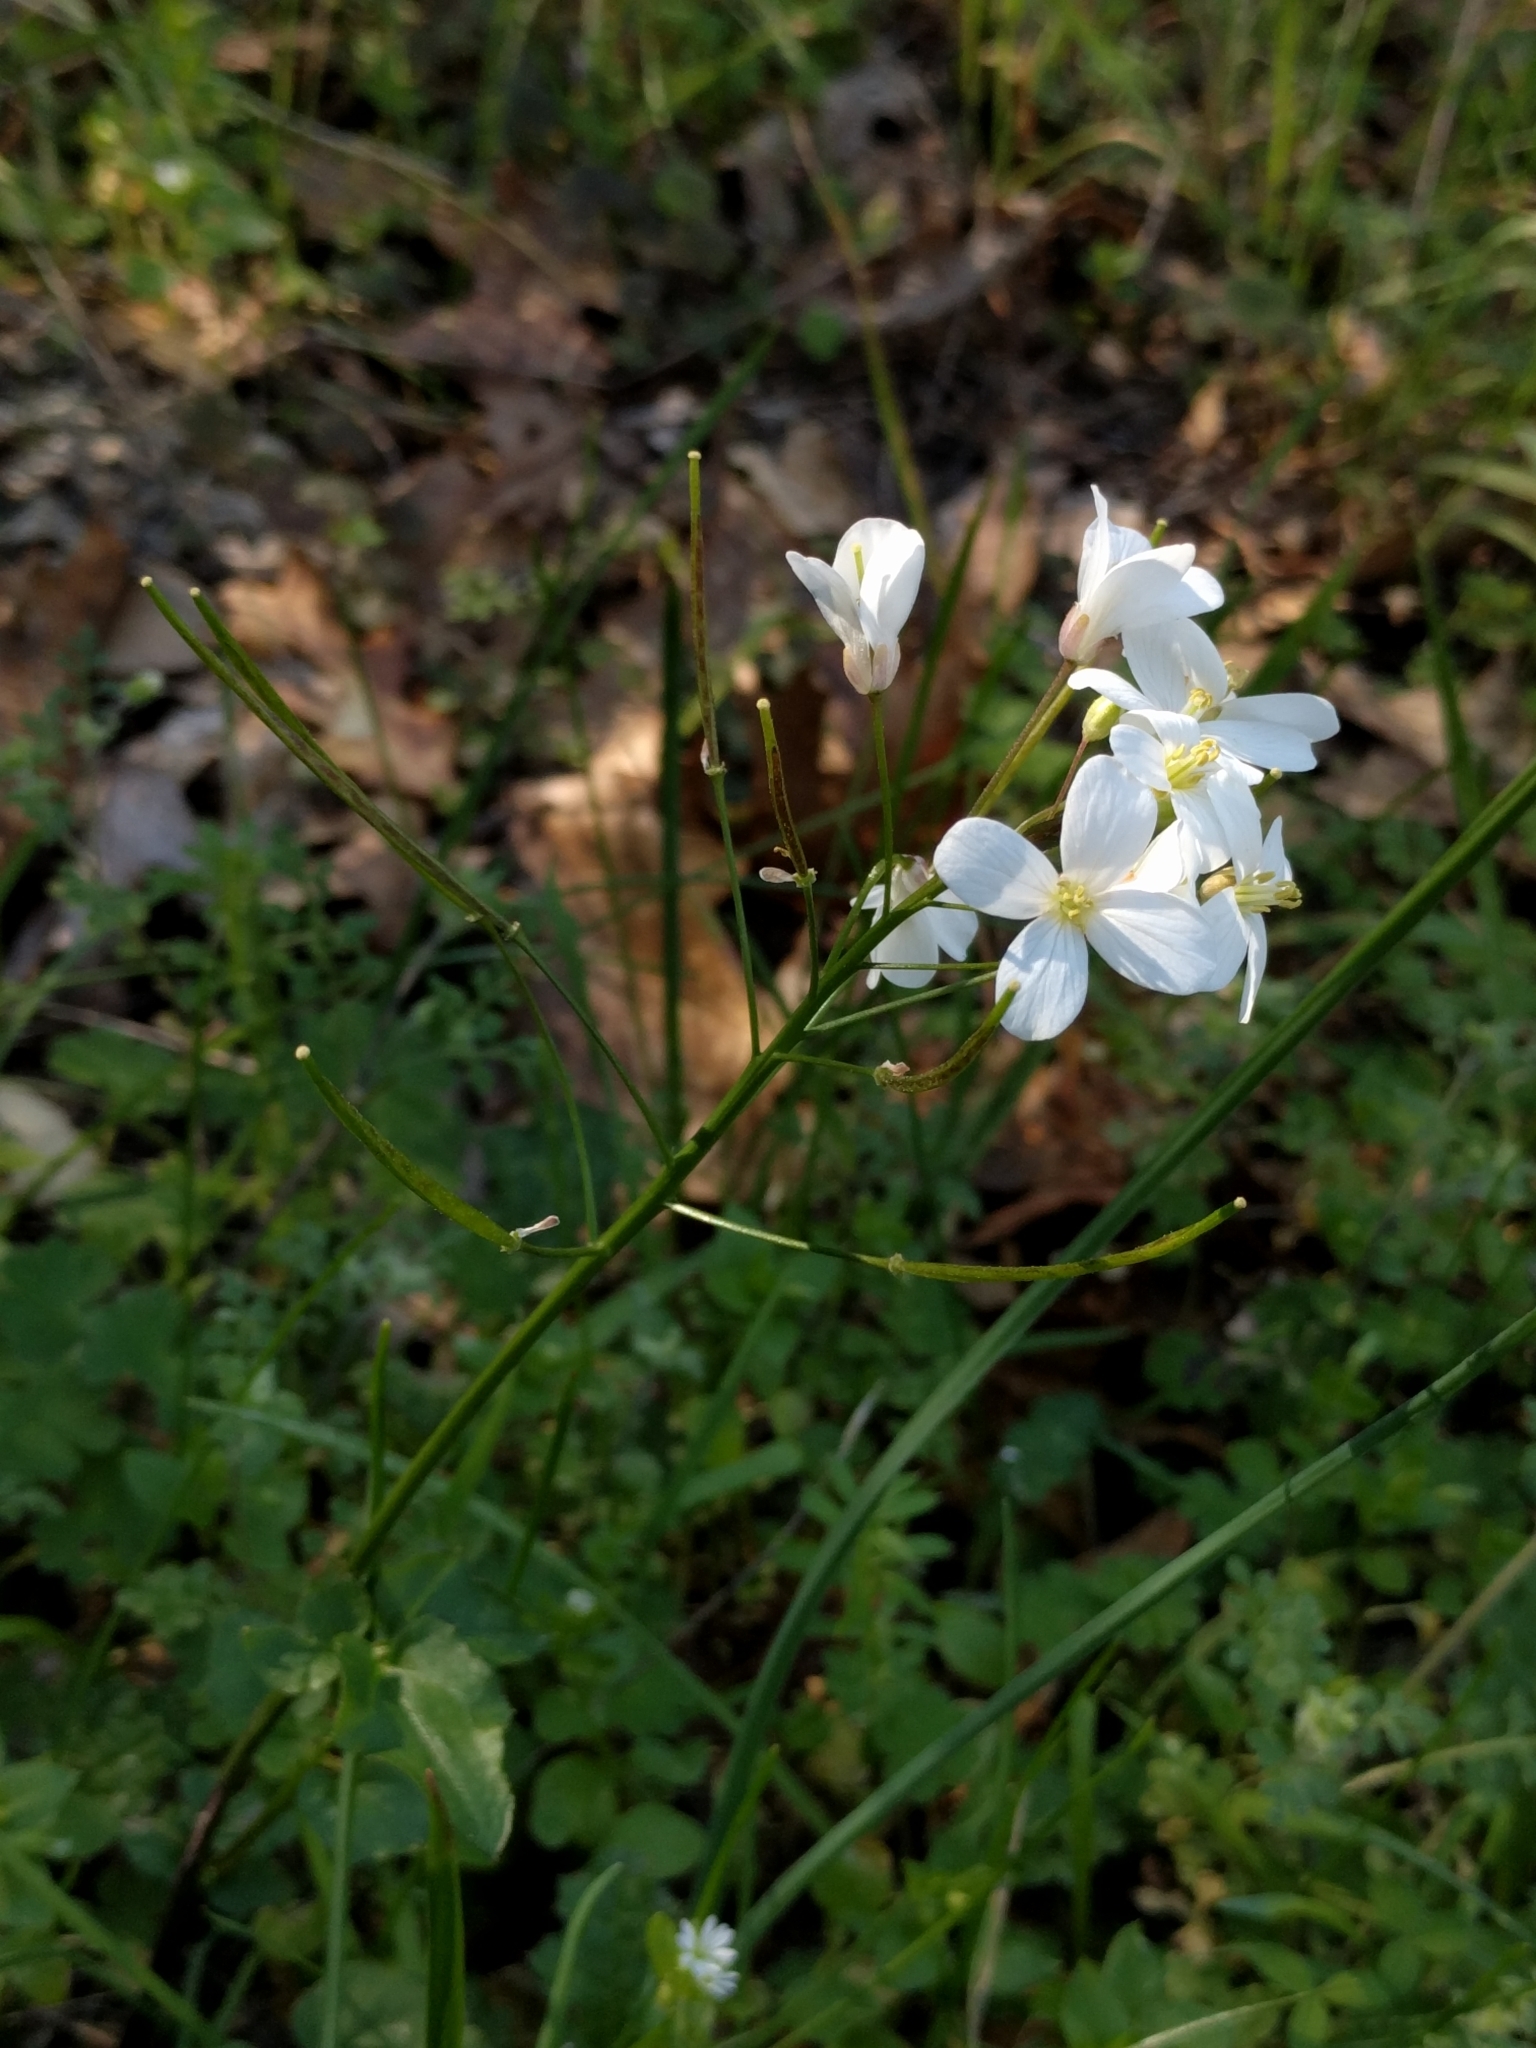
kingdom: Plantae
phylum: Tracheophyta
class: Magnoliopsida
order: Brassicales
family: Brassicaceae
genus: Cardamine
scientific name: Cardamine californica
